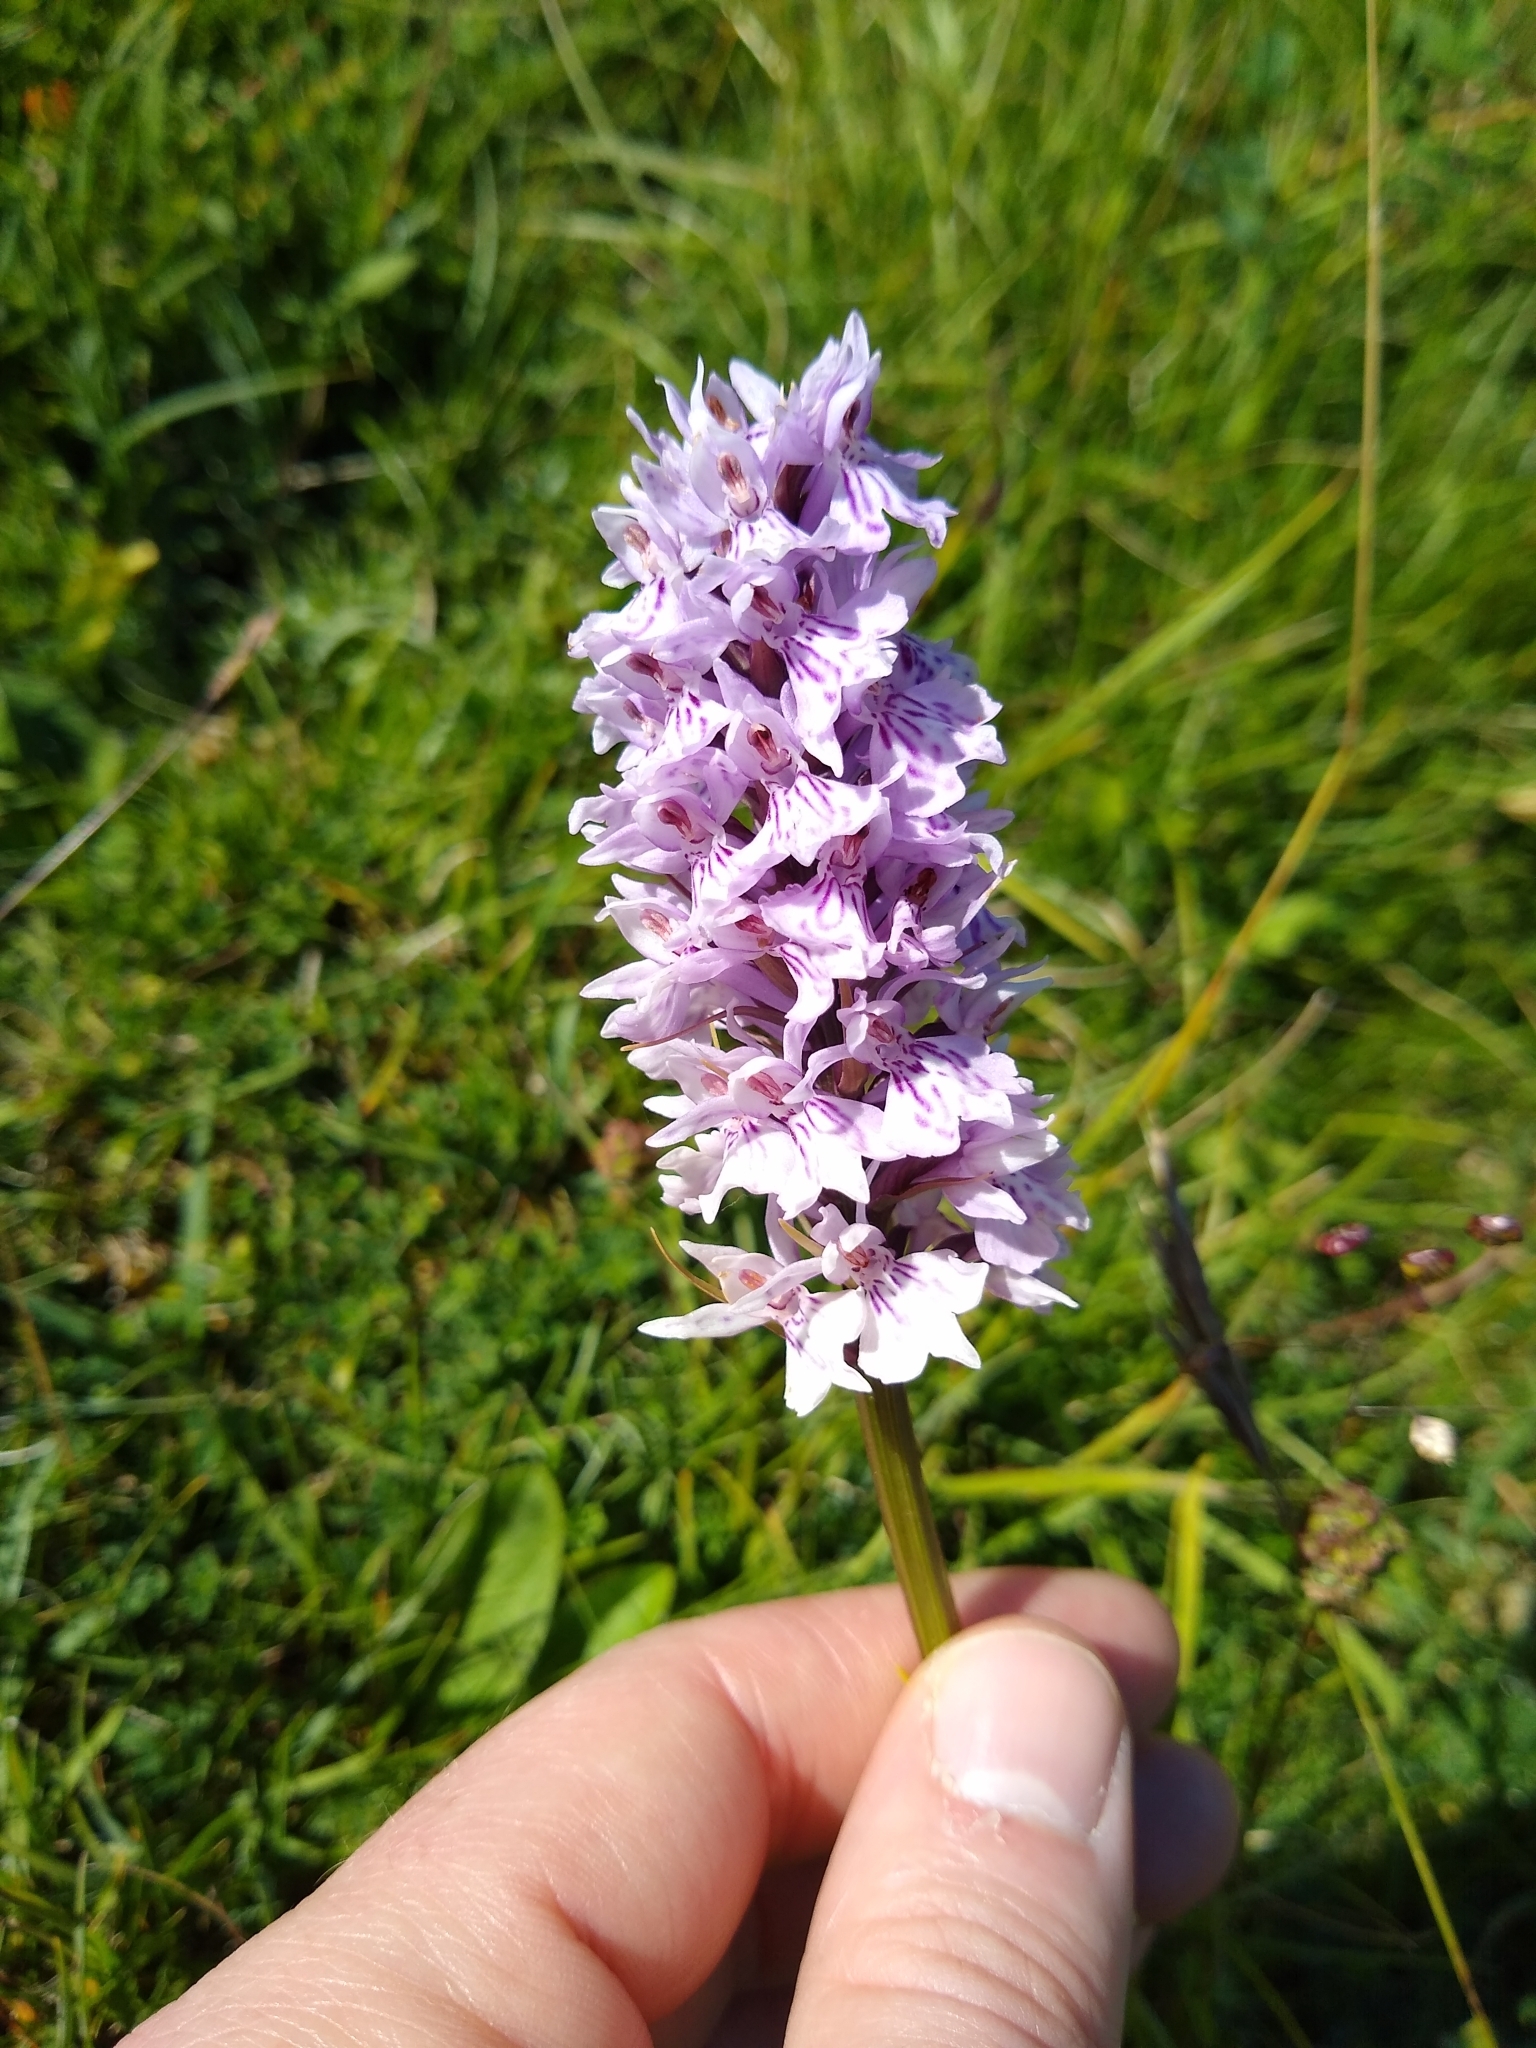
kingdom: Plantae
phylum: Tracheophyta
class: Liliopsida
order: Asparagales
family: Orchidaceae
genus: Dactylorhiza
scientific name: Dactylorhiza maculata
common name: Heath spotted-orchid
